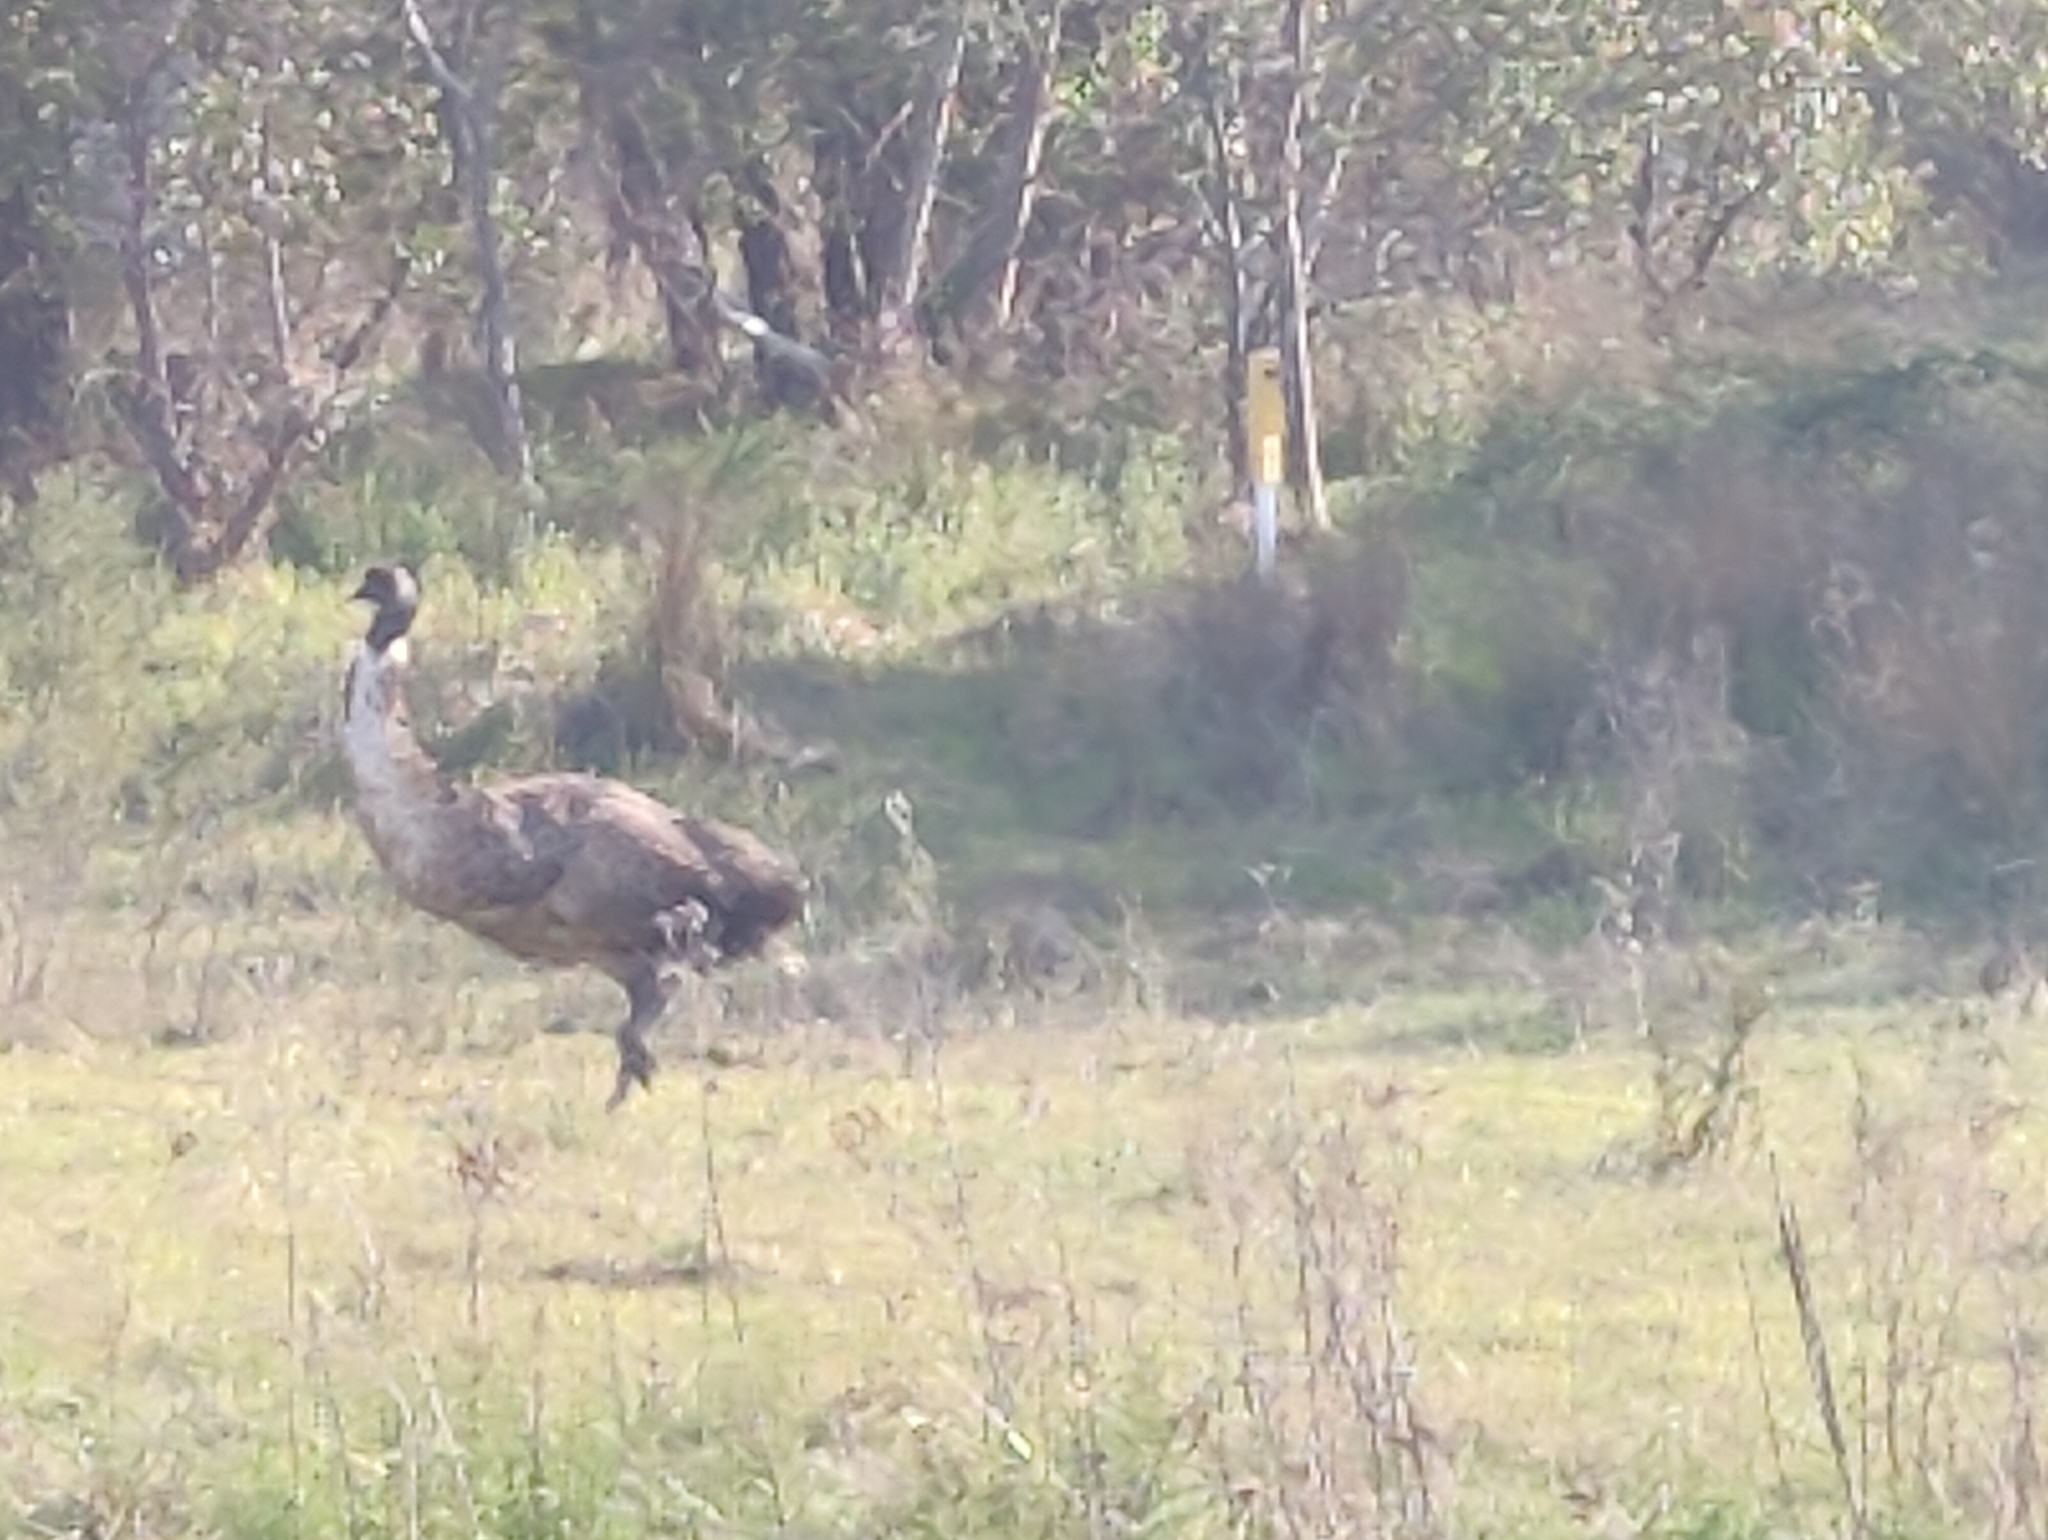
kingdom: Animalia
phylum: Chordata
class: Aves
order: Casuariiformes
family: Dromaiidae
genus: Dromaius
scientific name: Dromaius novaehollandiae
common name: Emu
